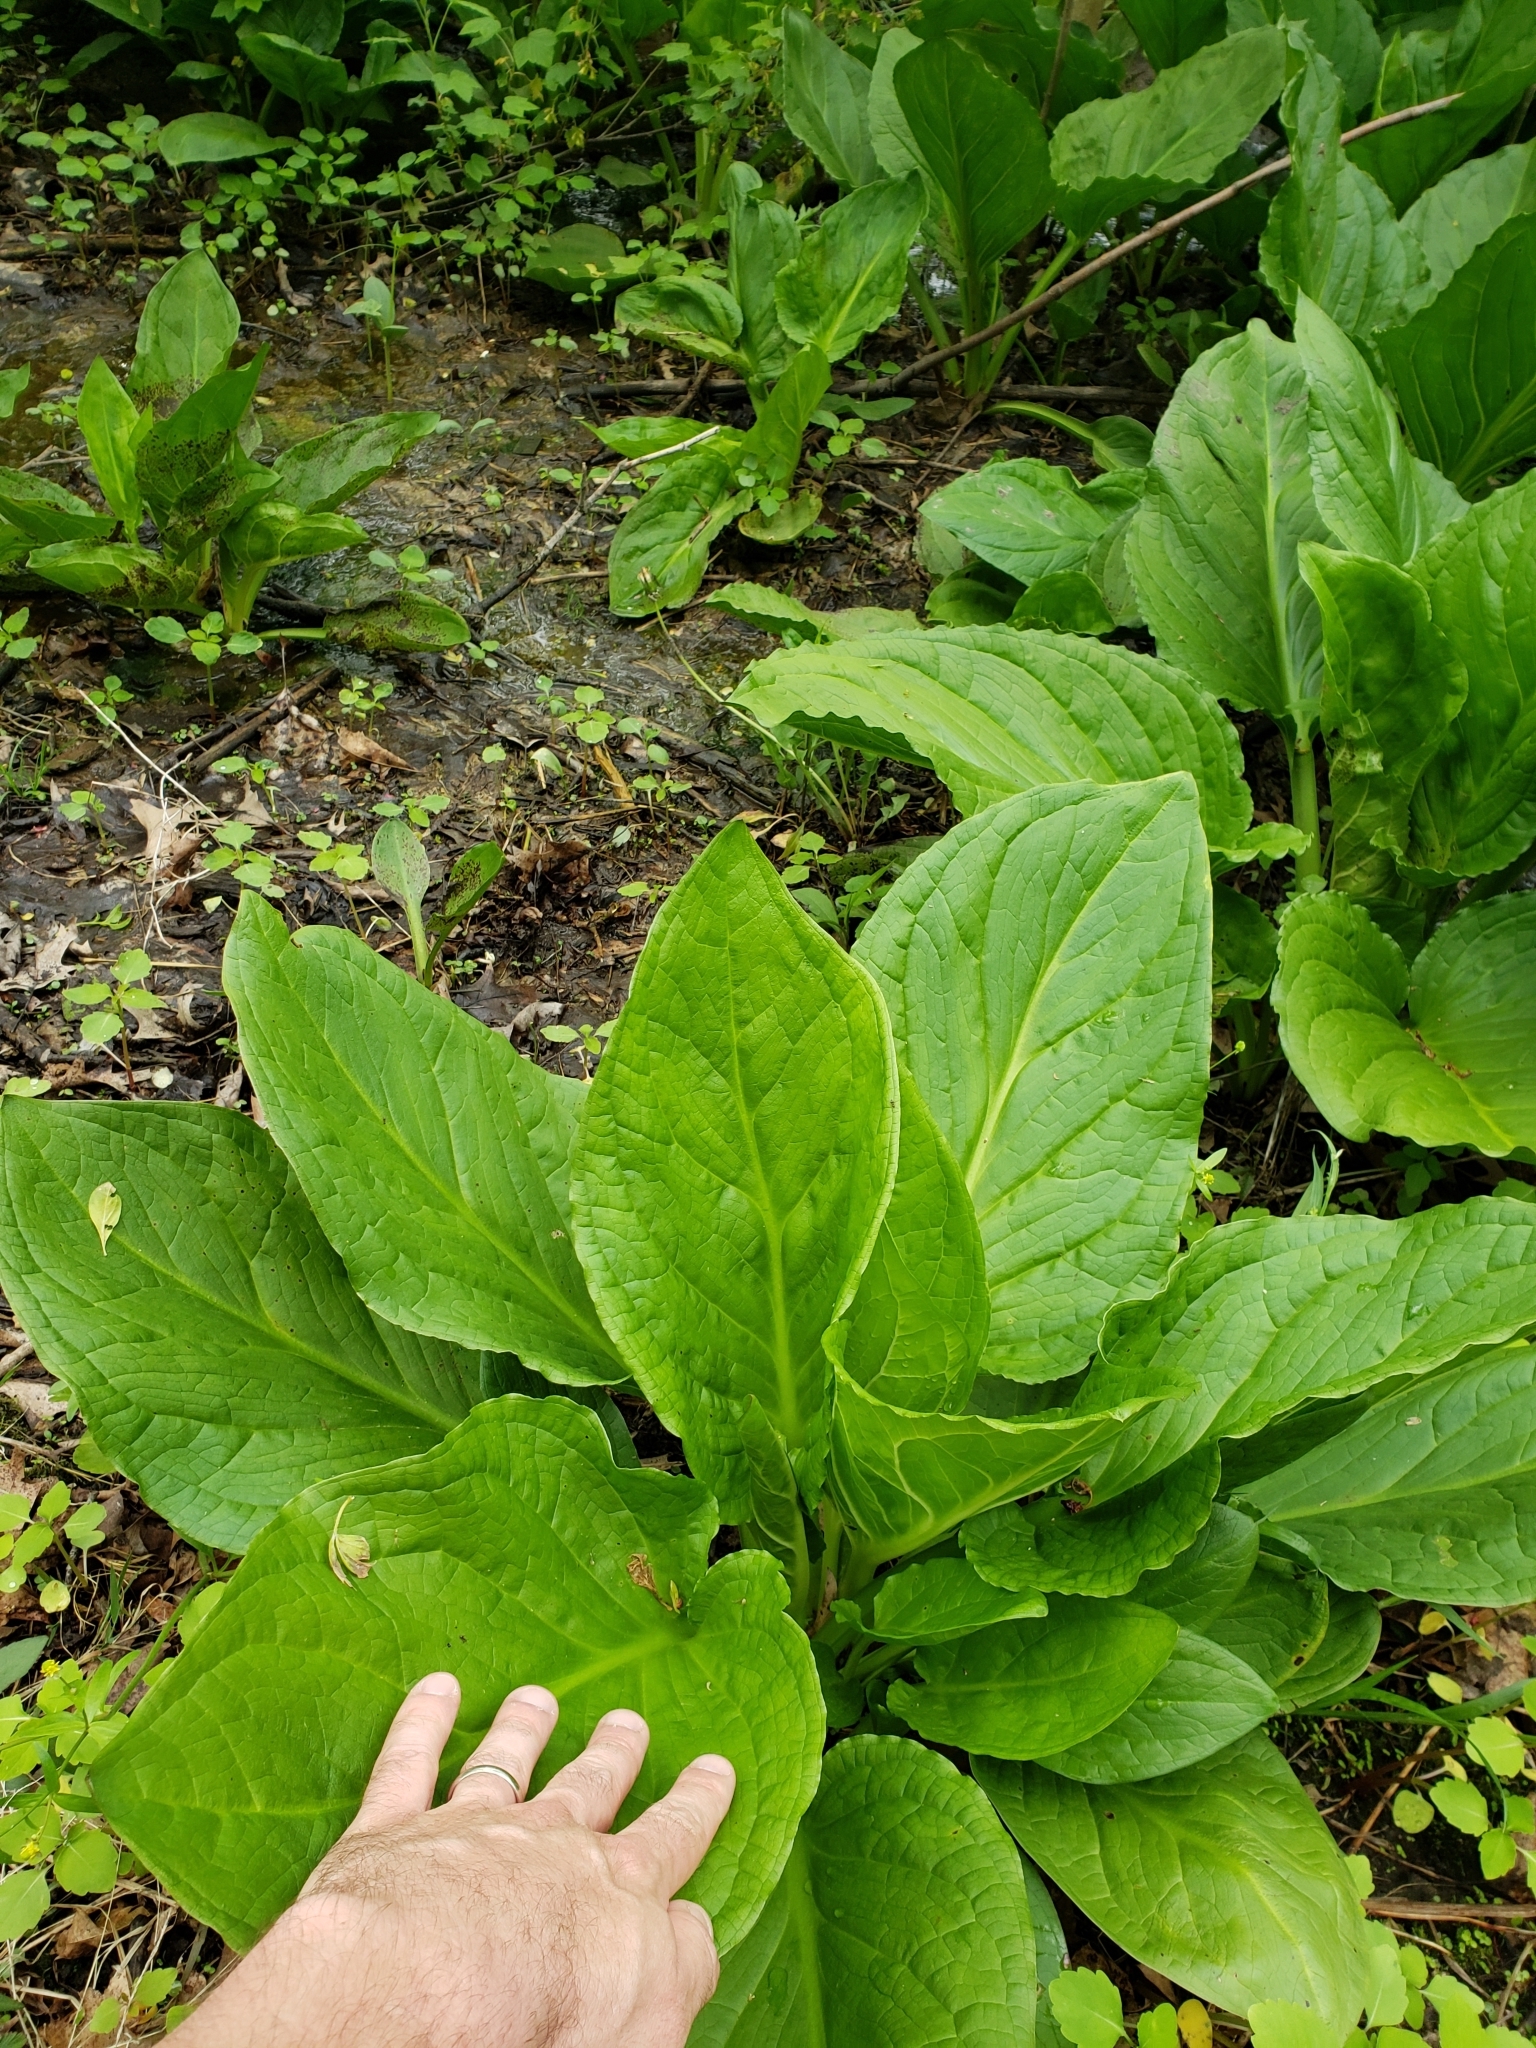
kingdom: Plantae
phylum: Tracheophyta
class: Liliopsida
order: Alismatales
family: Araceae
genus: Symplocarpus
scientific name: Symplocarpus foetidus
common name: Eastern skunk cabbage
